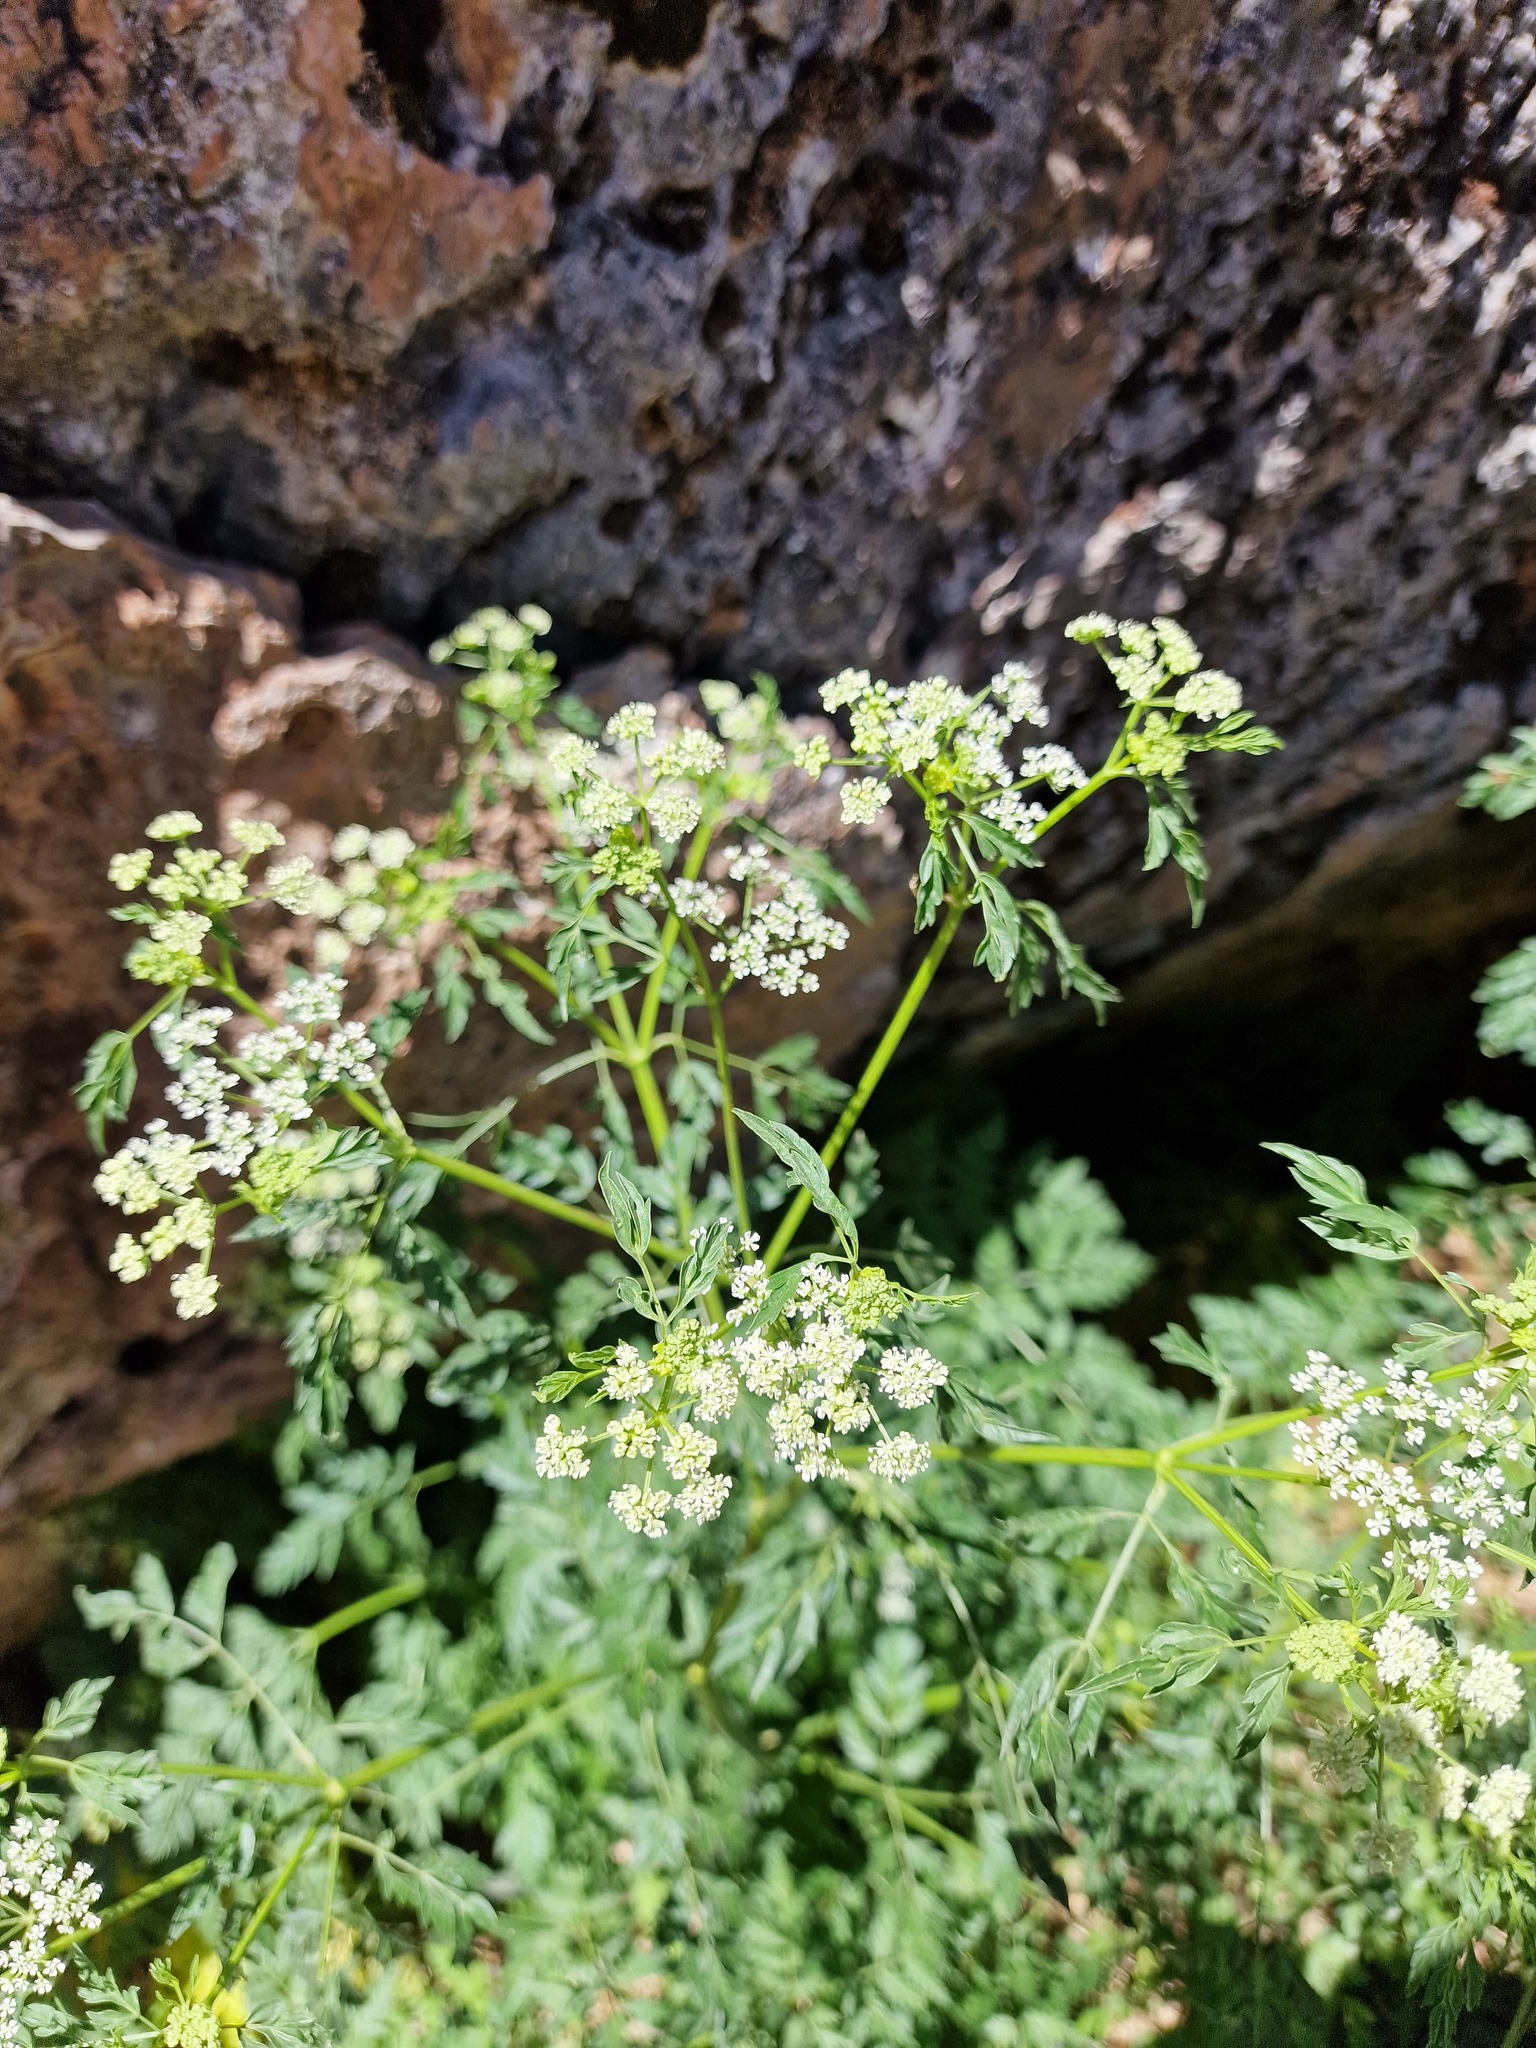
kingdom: Plantae
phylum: Tracheophyta
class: Magnoliopsida
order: Apiales
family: Apiaceae
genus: Conium
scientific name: Conium maculatum
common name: Hemlock
